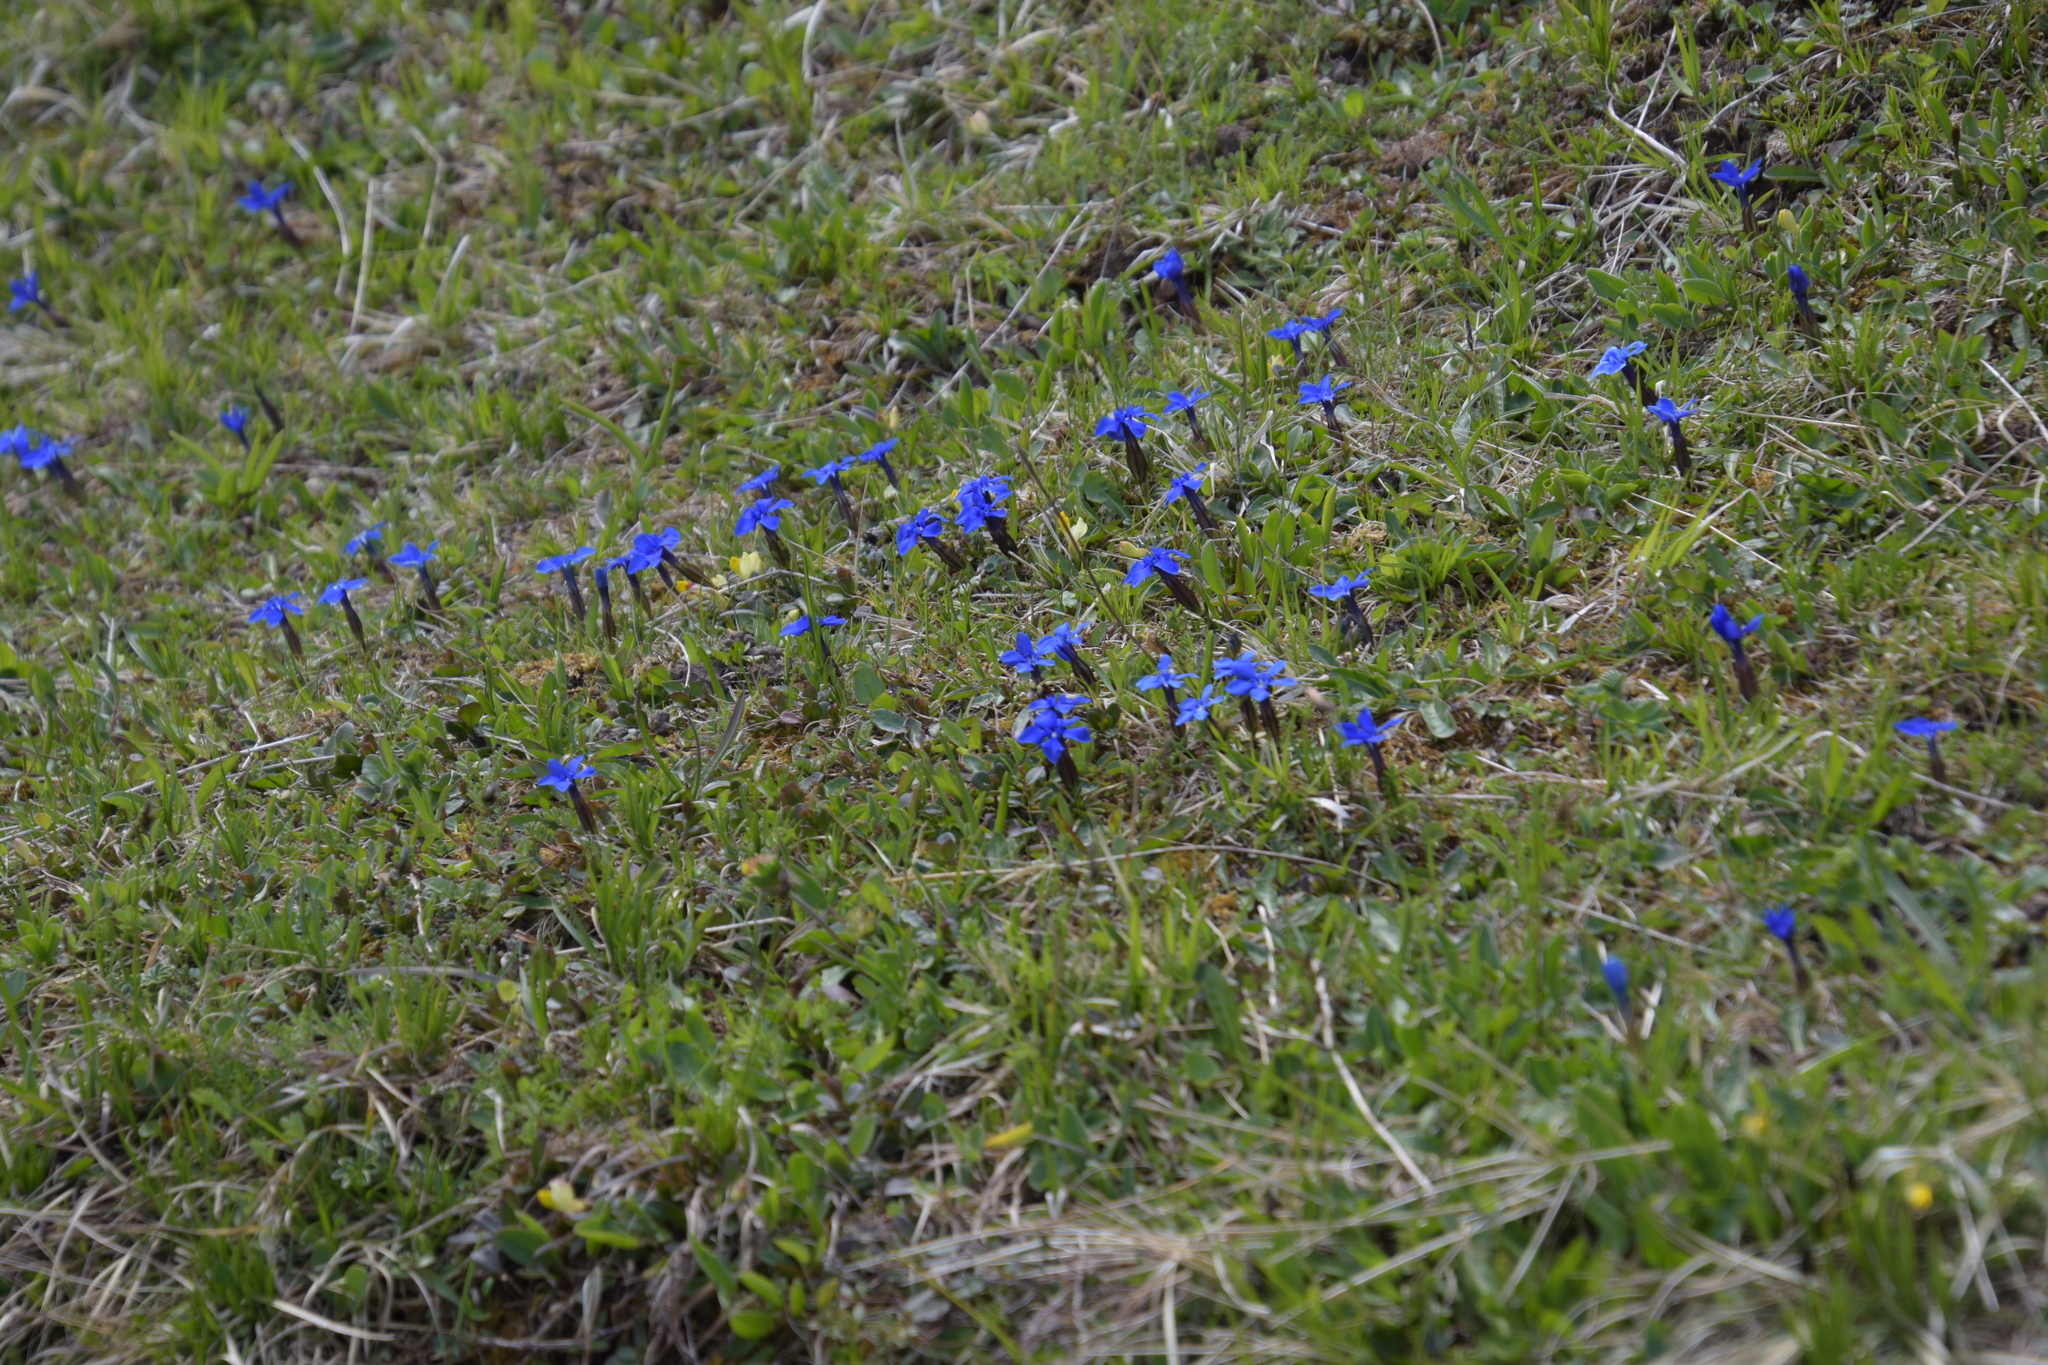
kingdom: Plantae
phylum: Tracheophyta
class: Magnoliopsida
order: Gentianales
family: Gentianaceae
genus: Gentiana
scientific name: Gentiana verna
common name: Spring gentian
